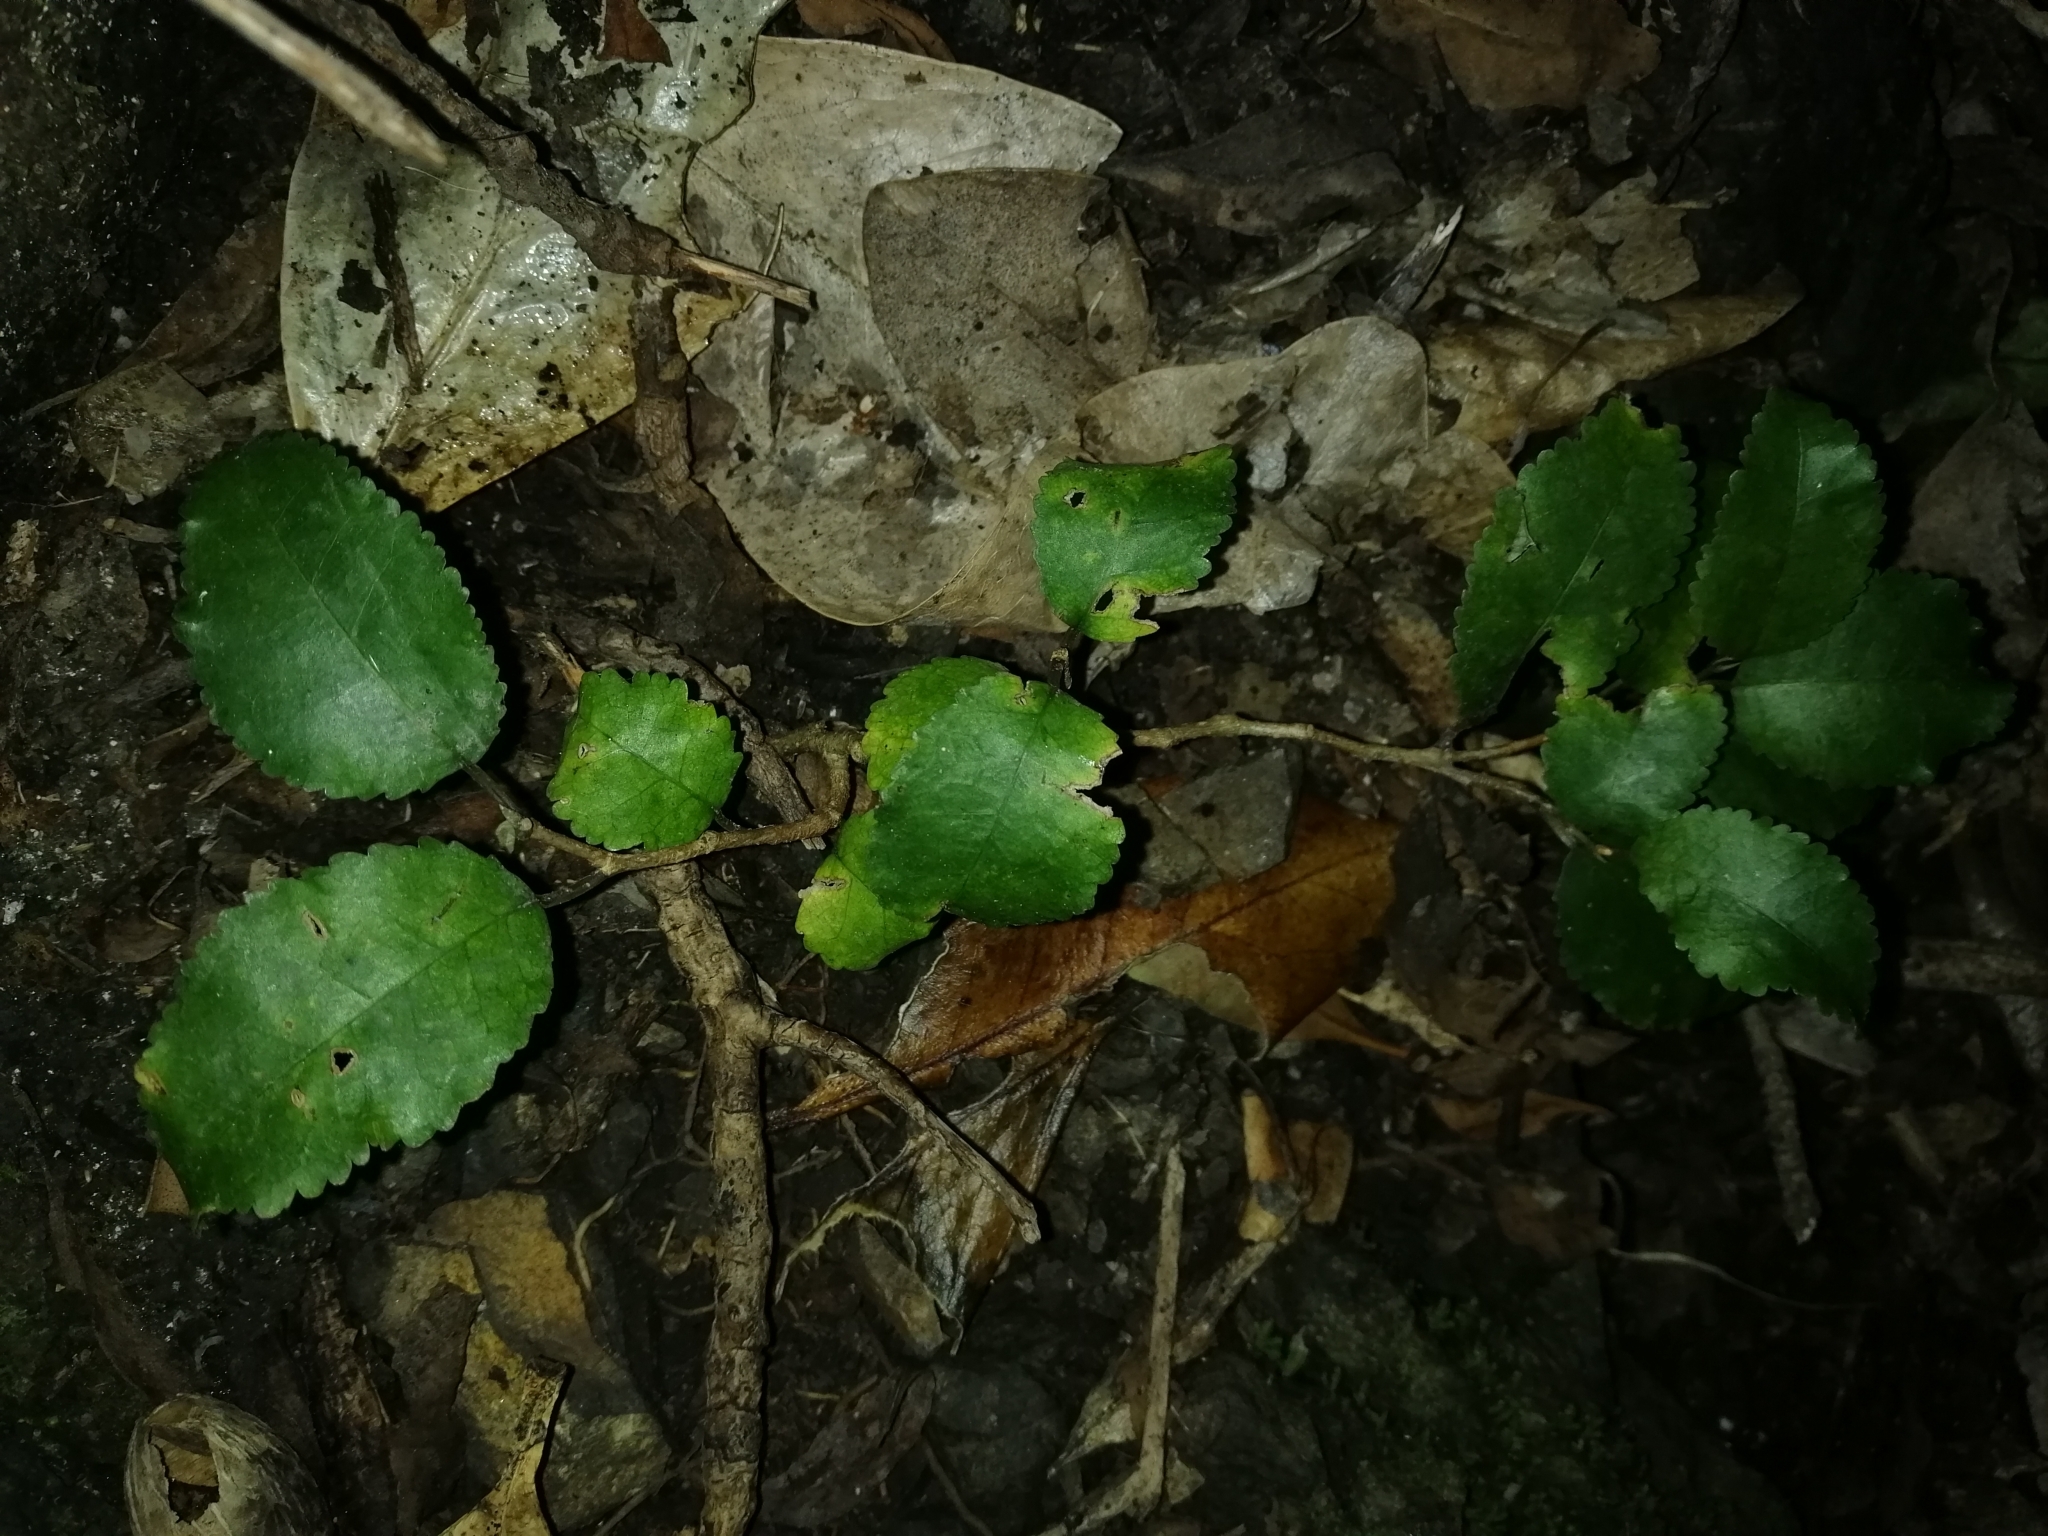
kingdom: Plantae
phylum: Tracheophyta
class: Magnoliopsida
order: Rosales
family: Moraceae
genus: Paratrophis
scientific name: Paratrophis banksii
